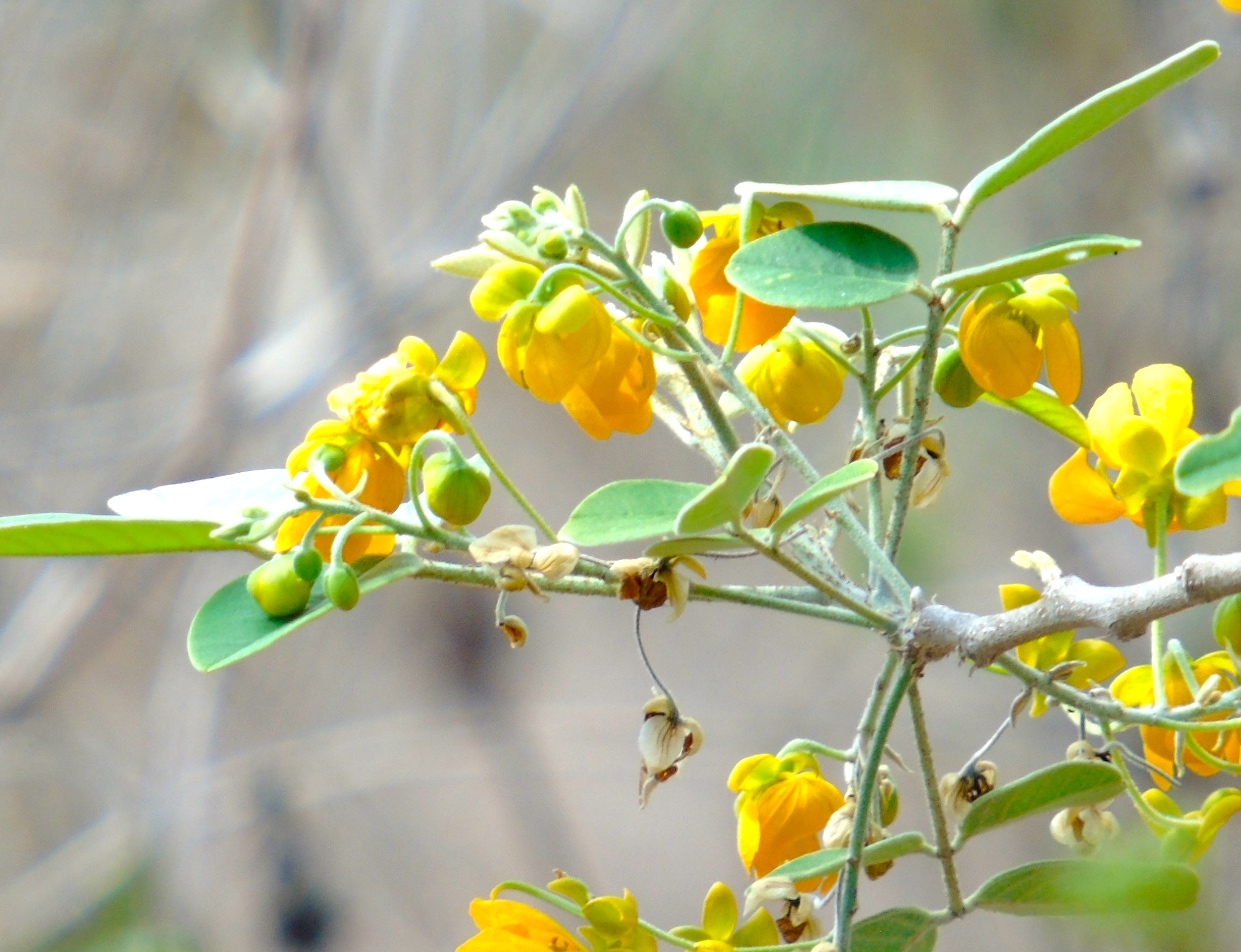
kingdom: Plantae
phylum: Tracheophyta
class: Magnoliopsida
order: Fabales
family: Fabaceae
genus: Senna
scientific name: Senna atomaria
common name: Flor de san jose
